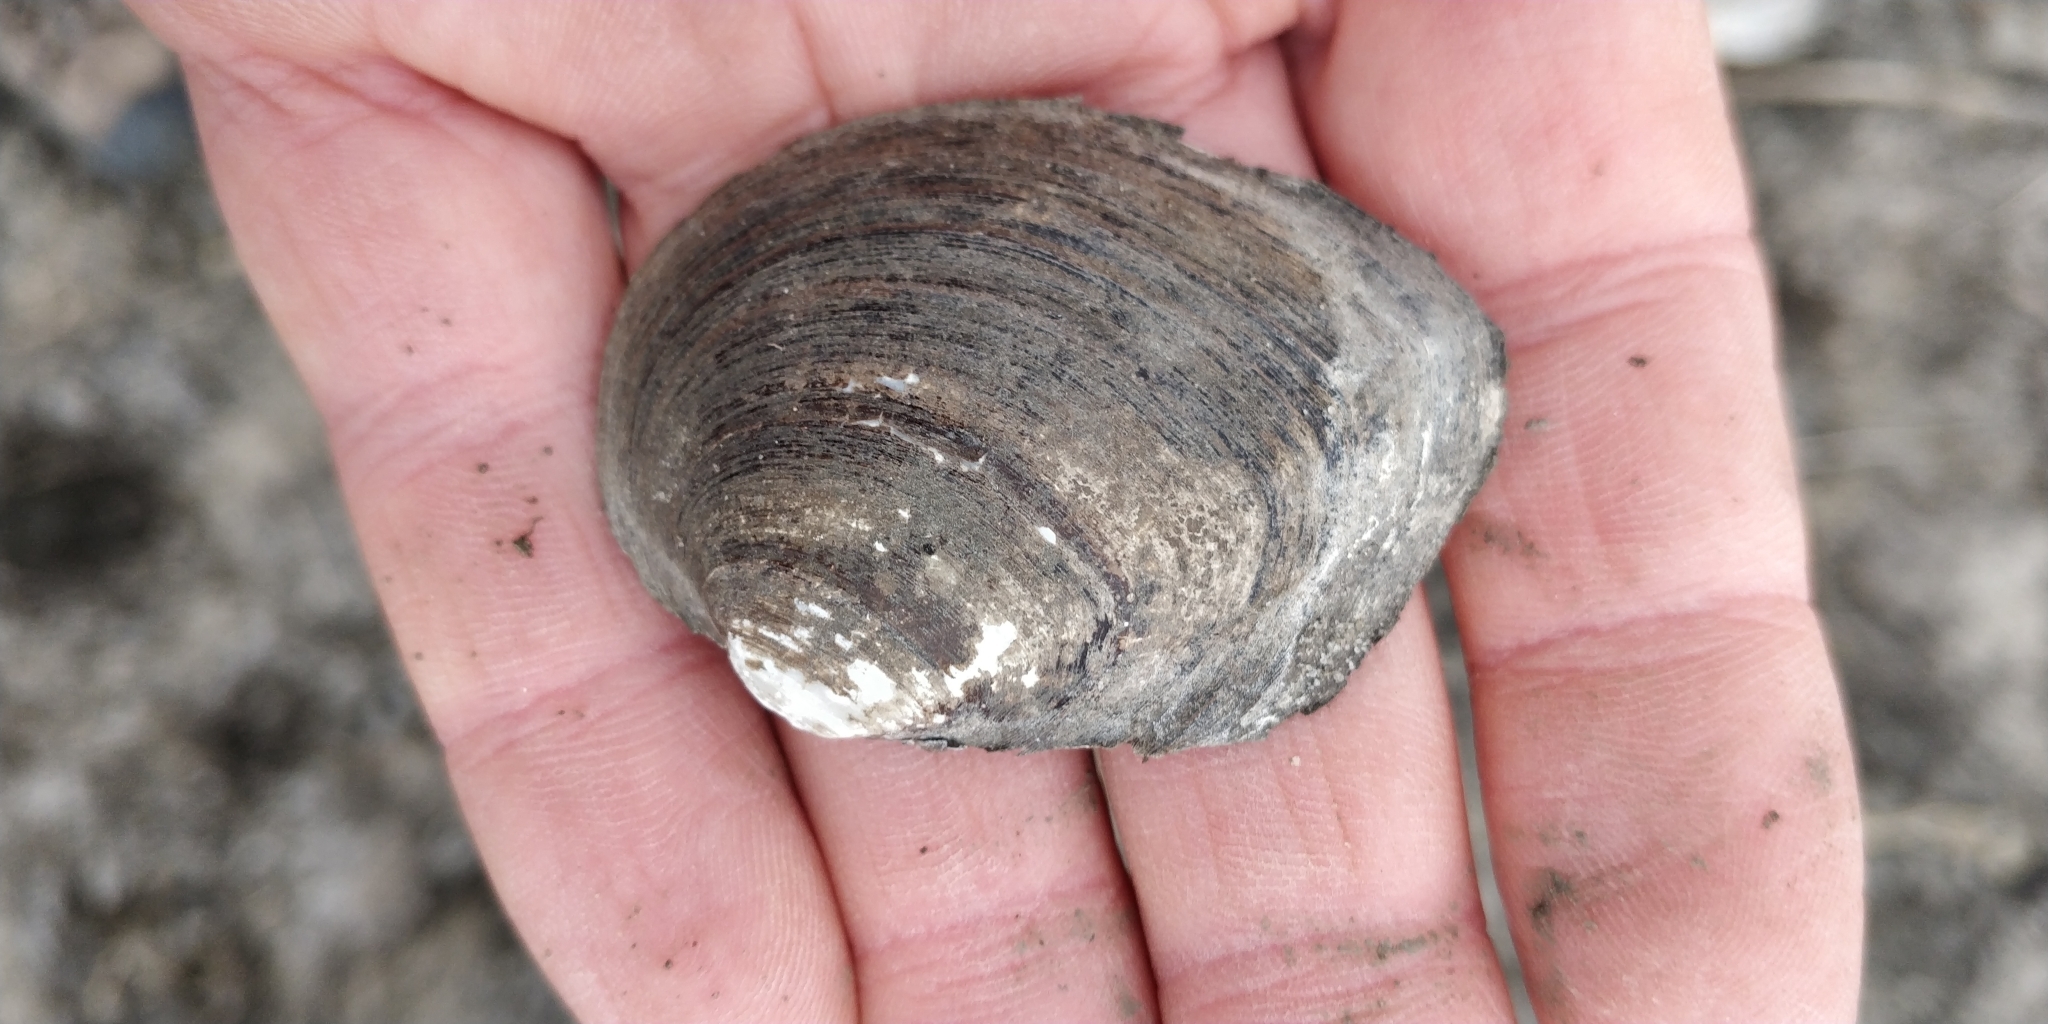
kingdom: Animalia
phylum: Mollusca
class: Bivalvia
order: Unionida
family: Unionidae
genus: Fusconaia
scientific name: Fusconaia flava
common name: Wabash pigtoe
